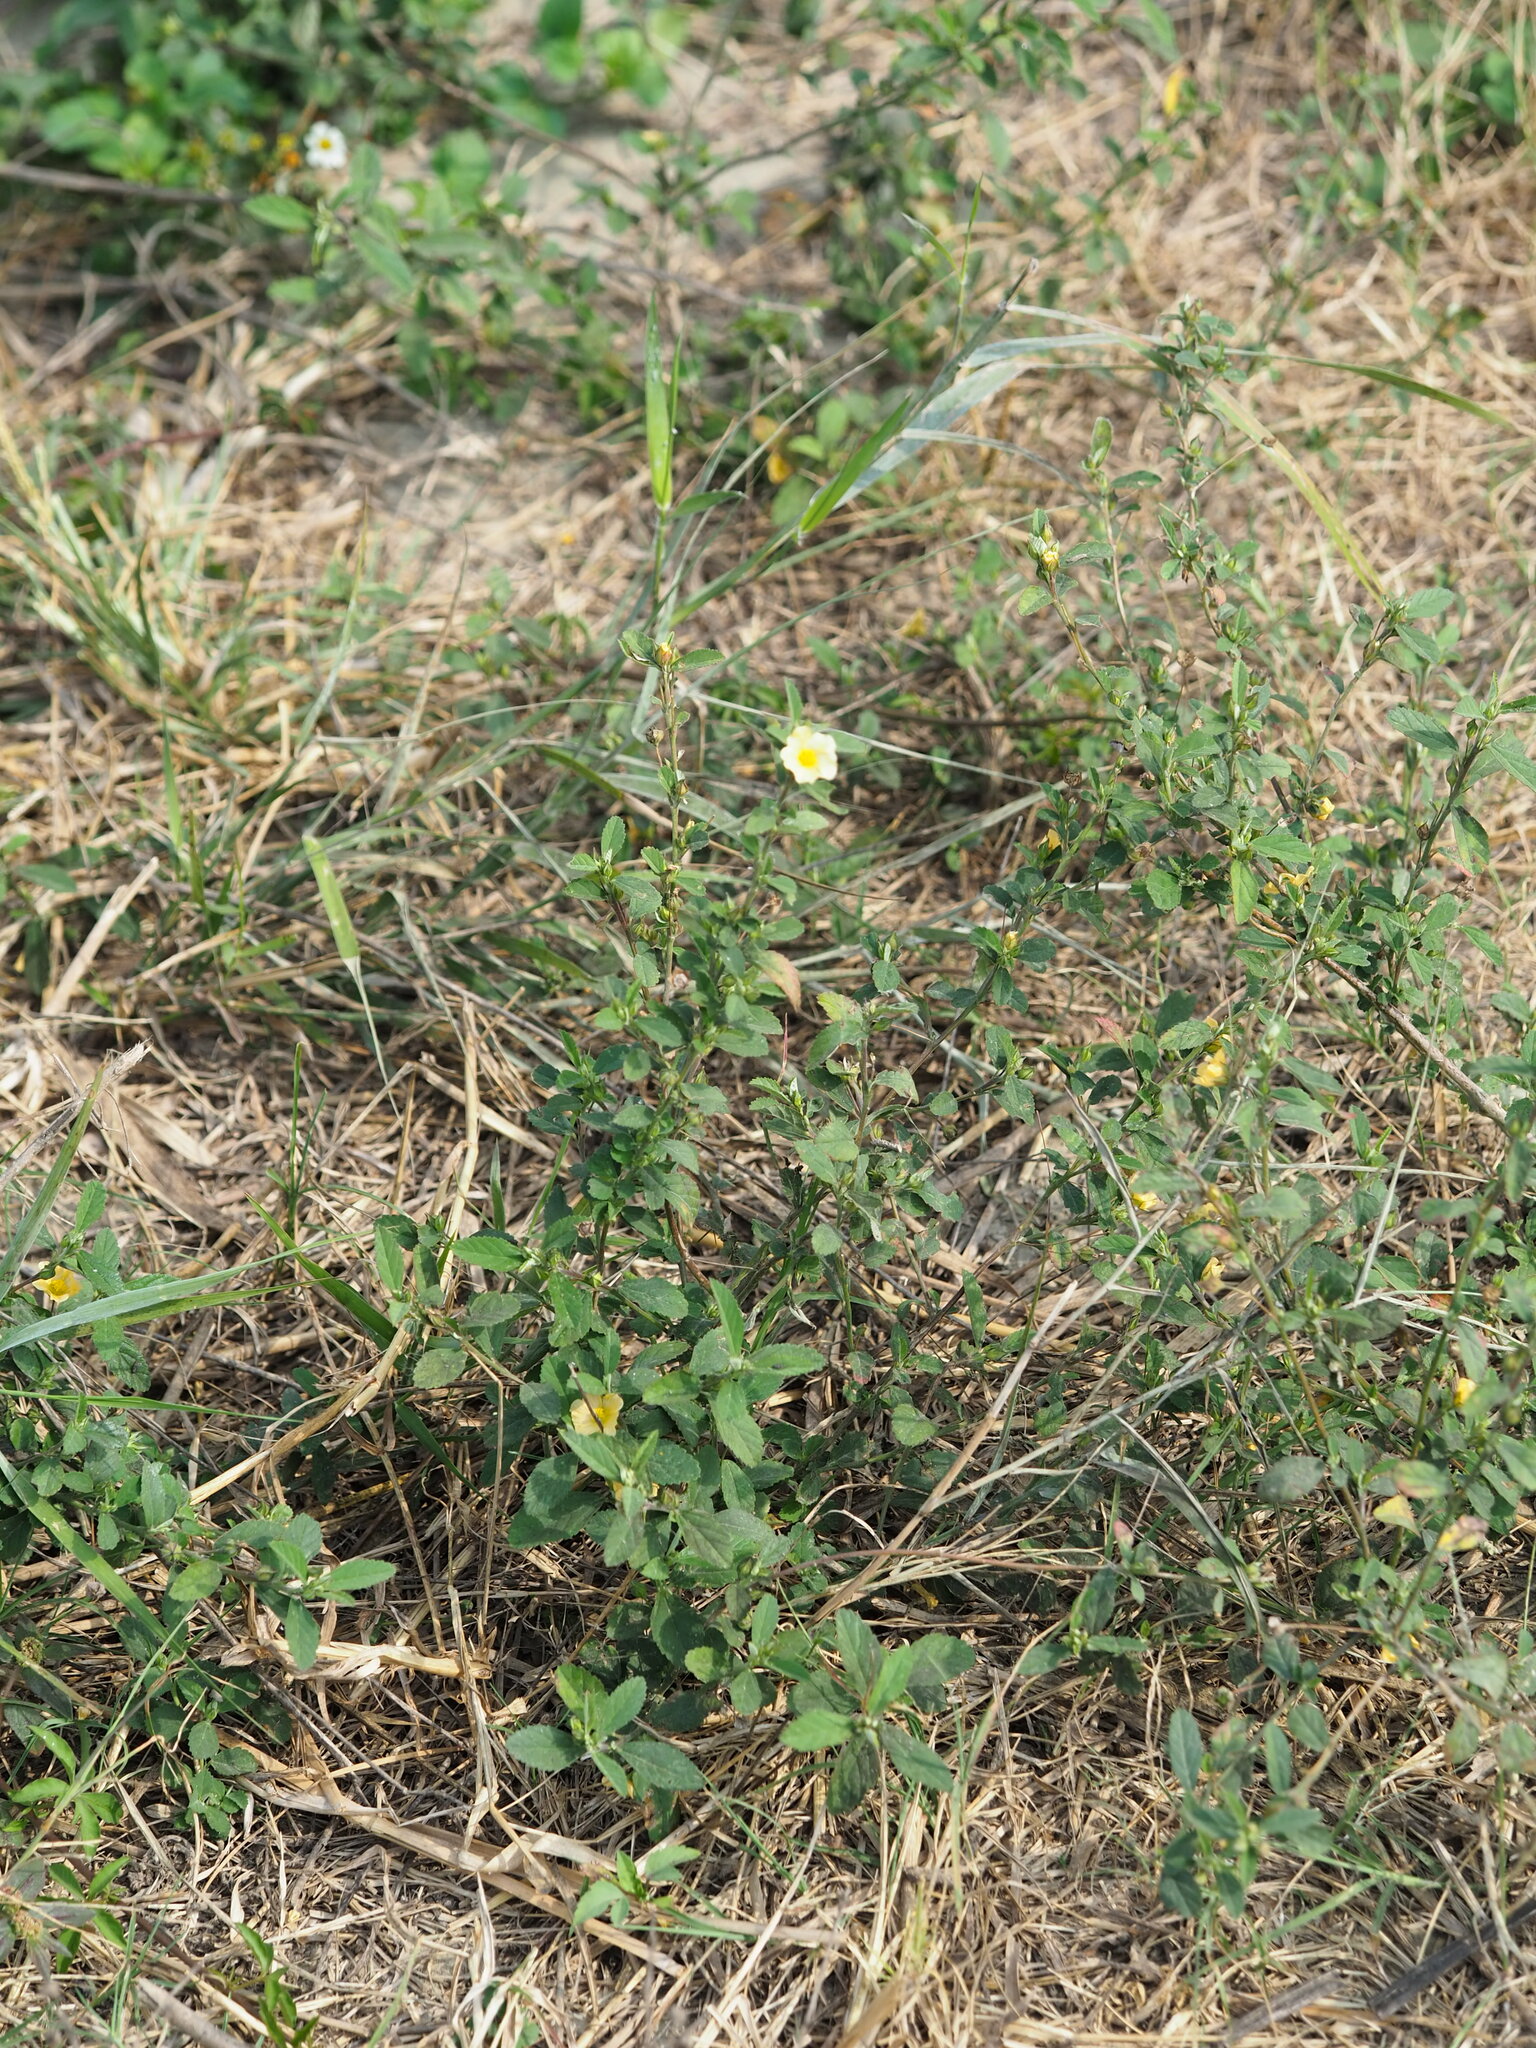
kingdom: Plantae
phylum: Tracheophyta
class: Magnoliopsida
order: Malvales
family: Malvaceae
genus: Sida
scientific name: Sida rhombifolia
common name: Queensland-hemp
